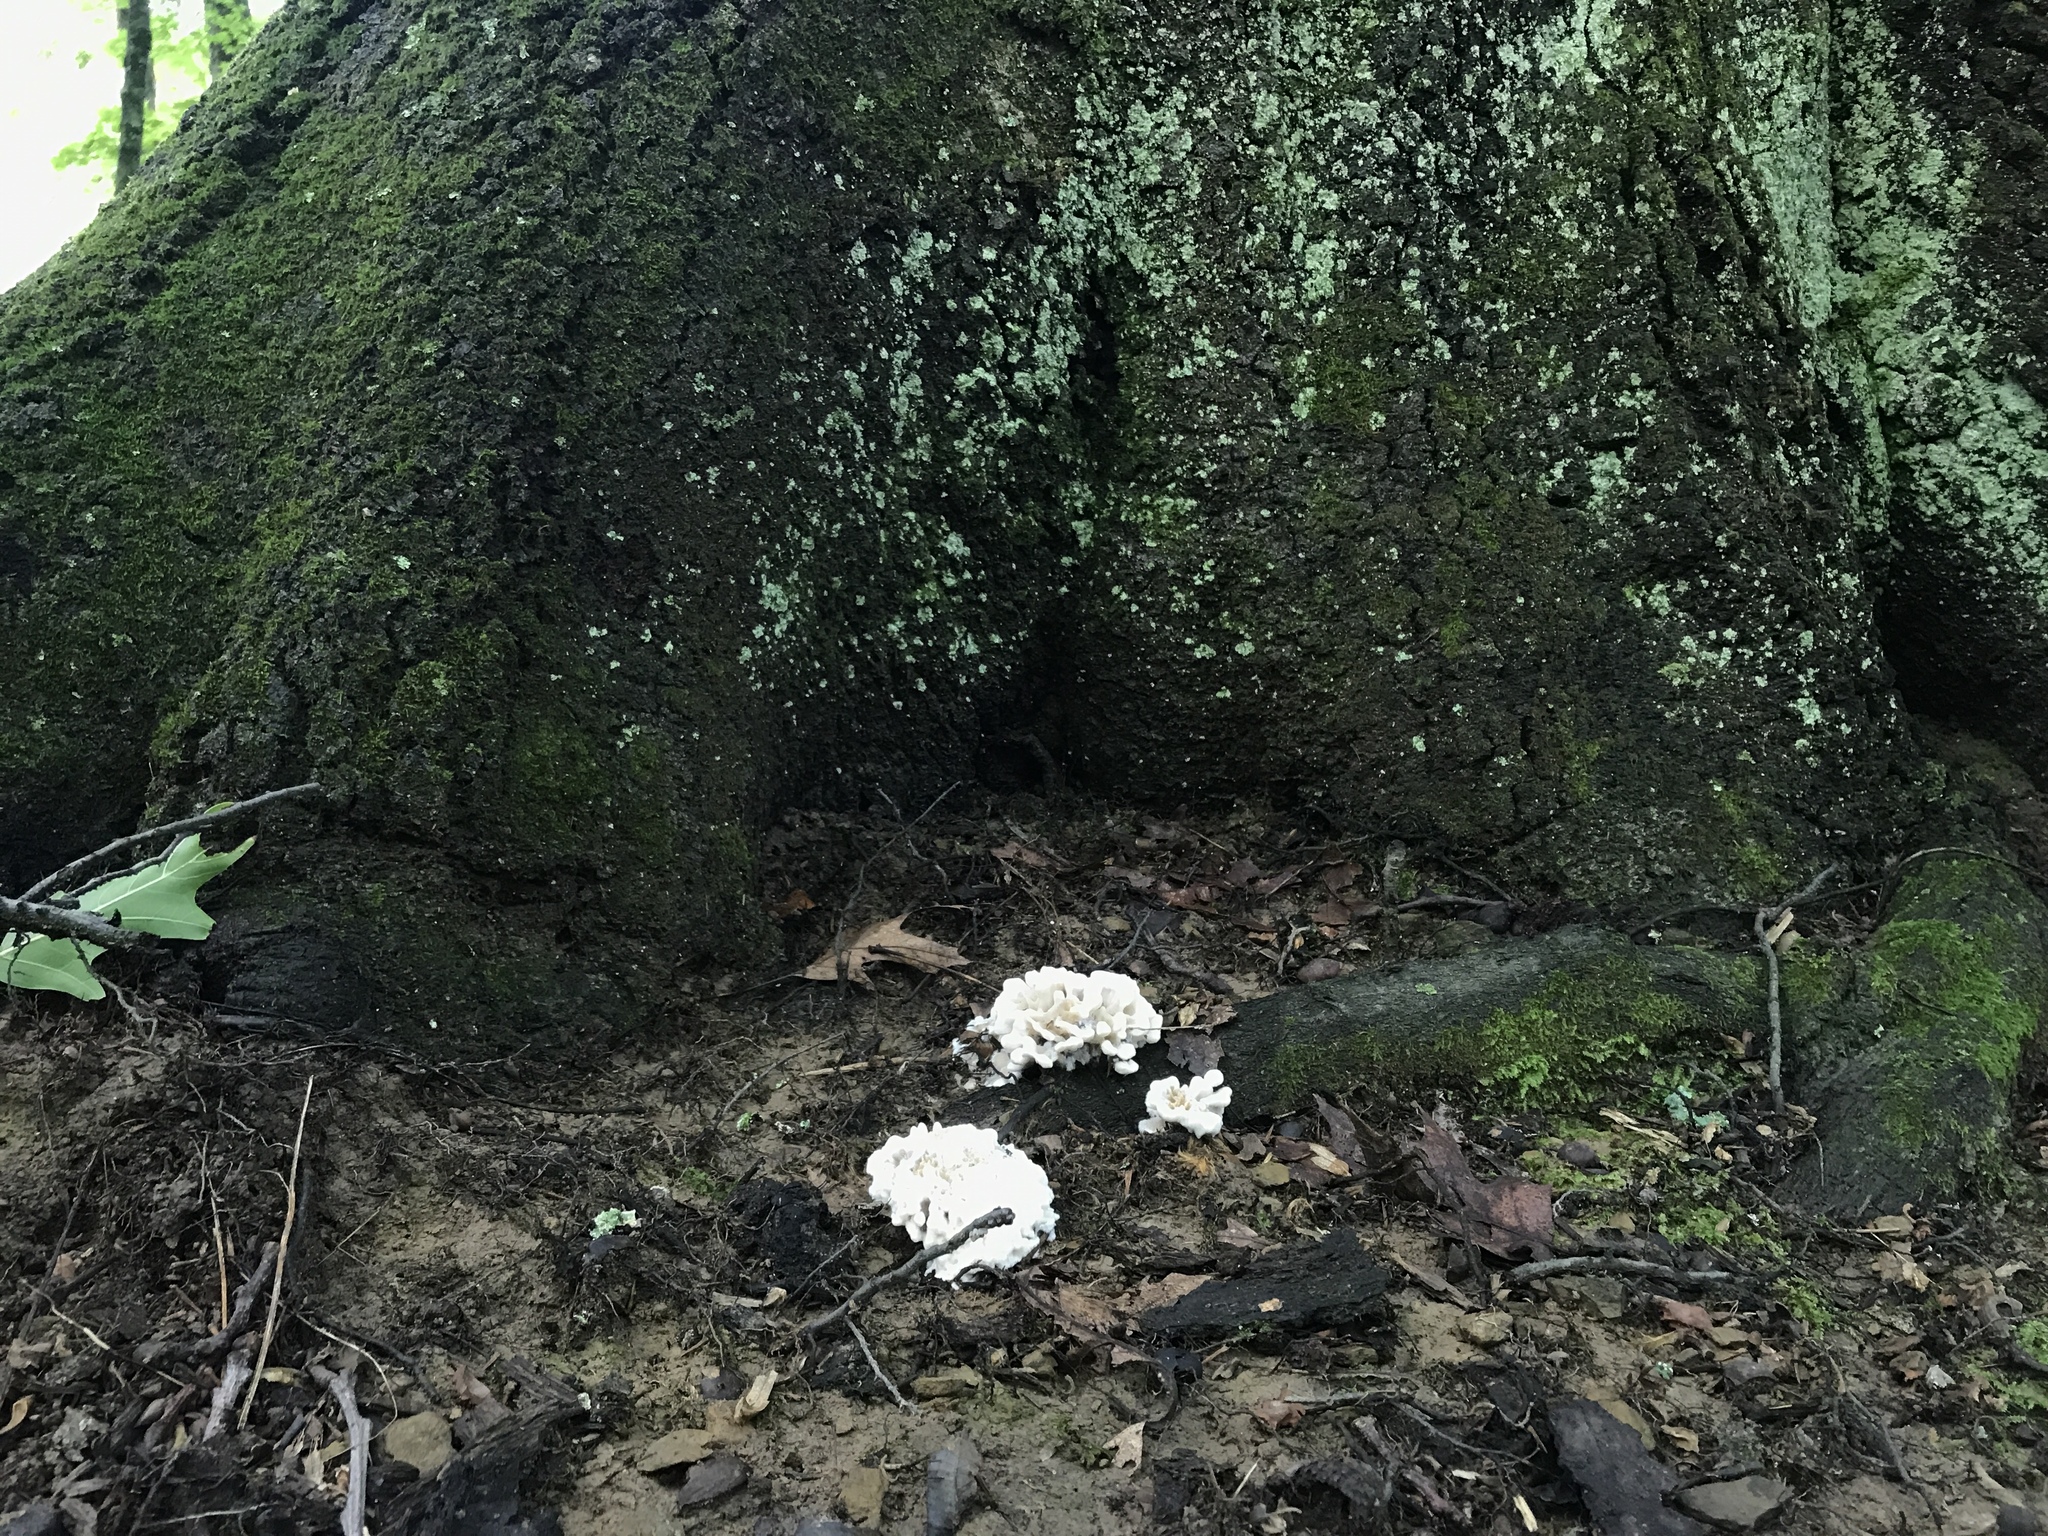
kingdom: Fungi
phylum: Basidiomycota
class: Agaricomycetes
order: Polyporales
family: Sparassidaceae
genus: Sparassis
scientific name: Sparassis spathulata
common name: Eastern cauliflower mushroom
